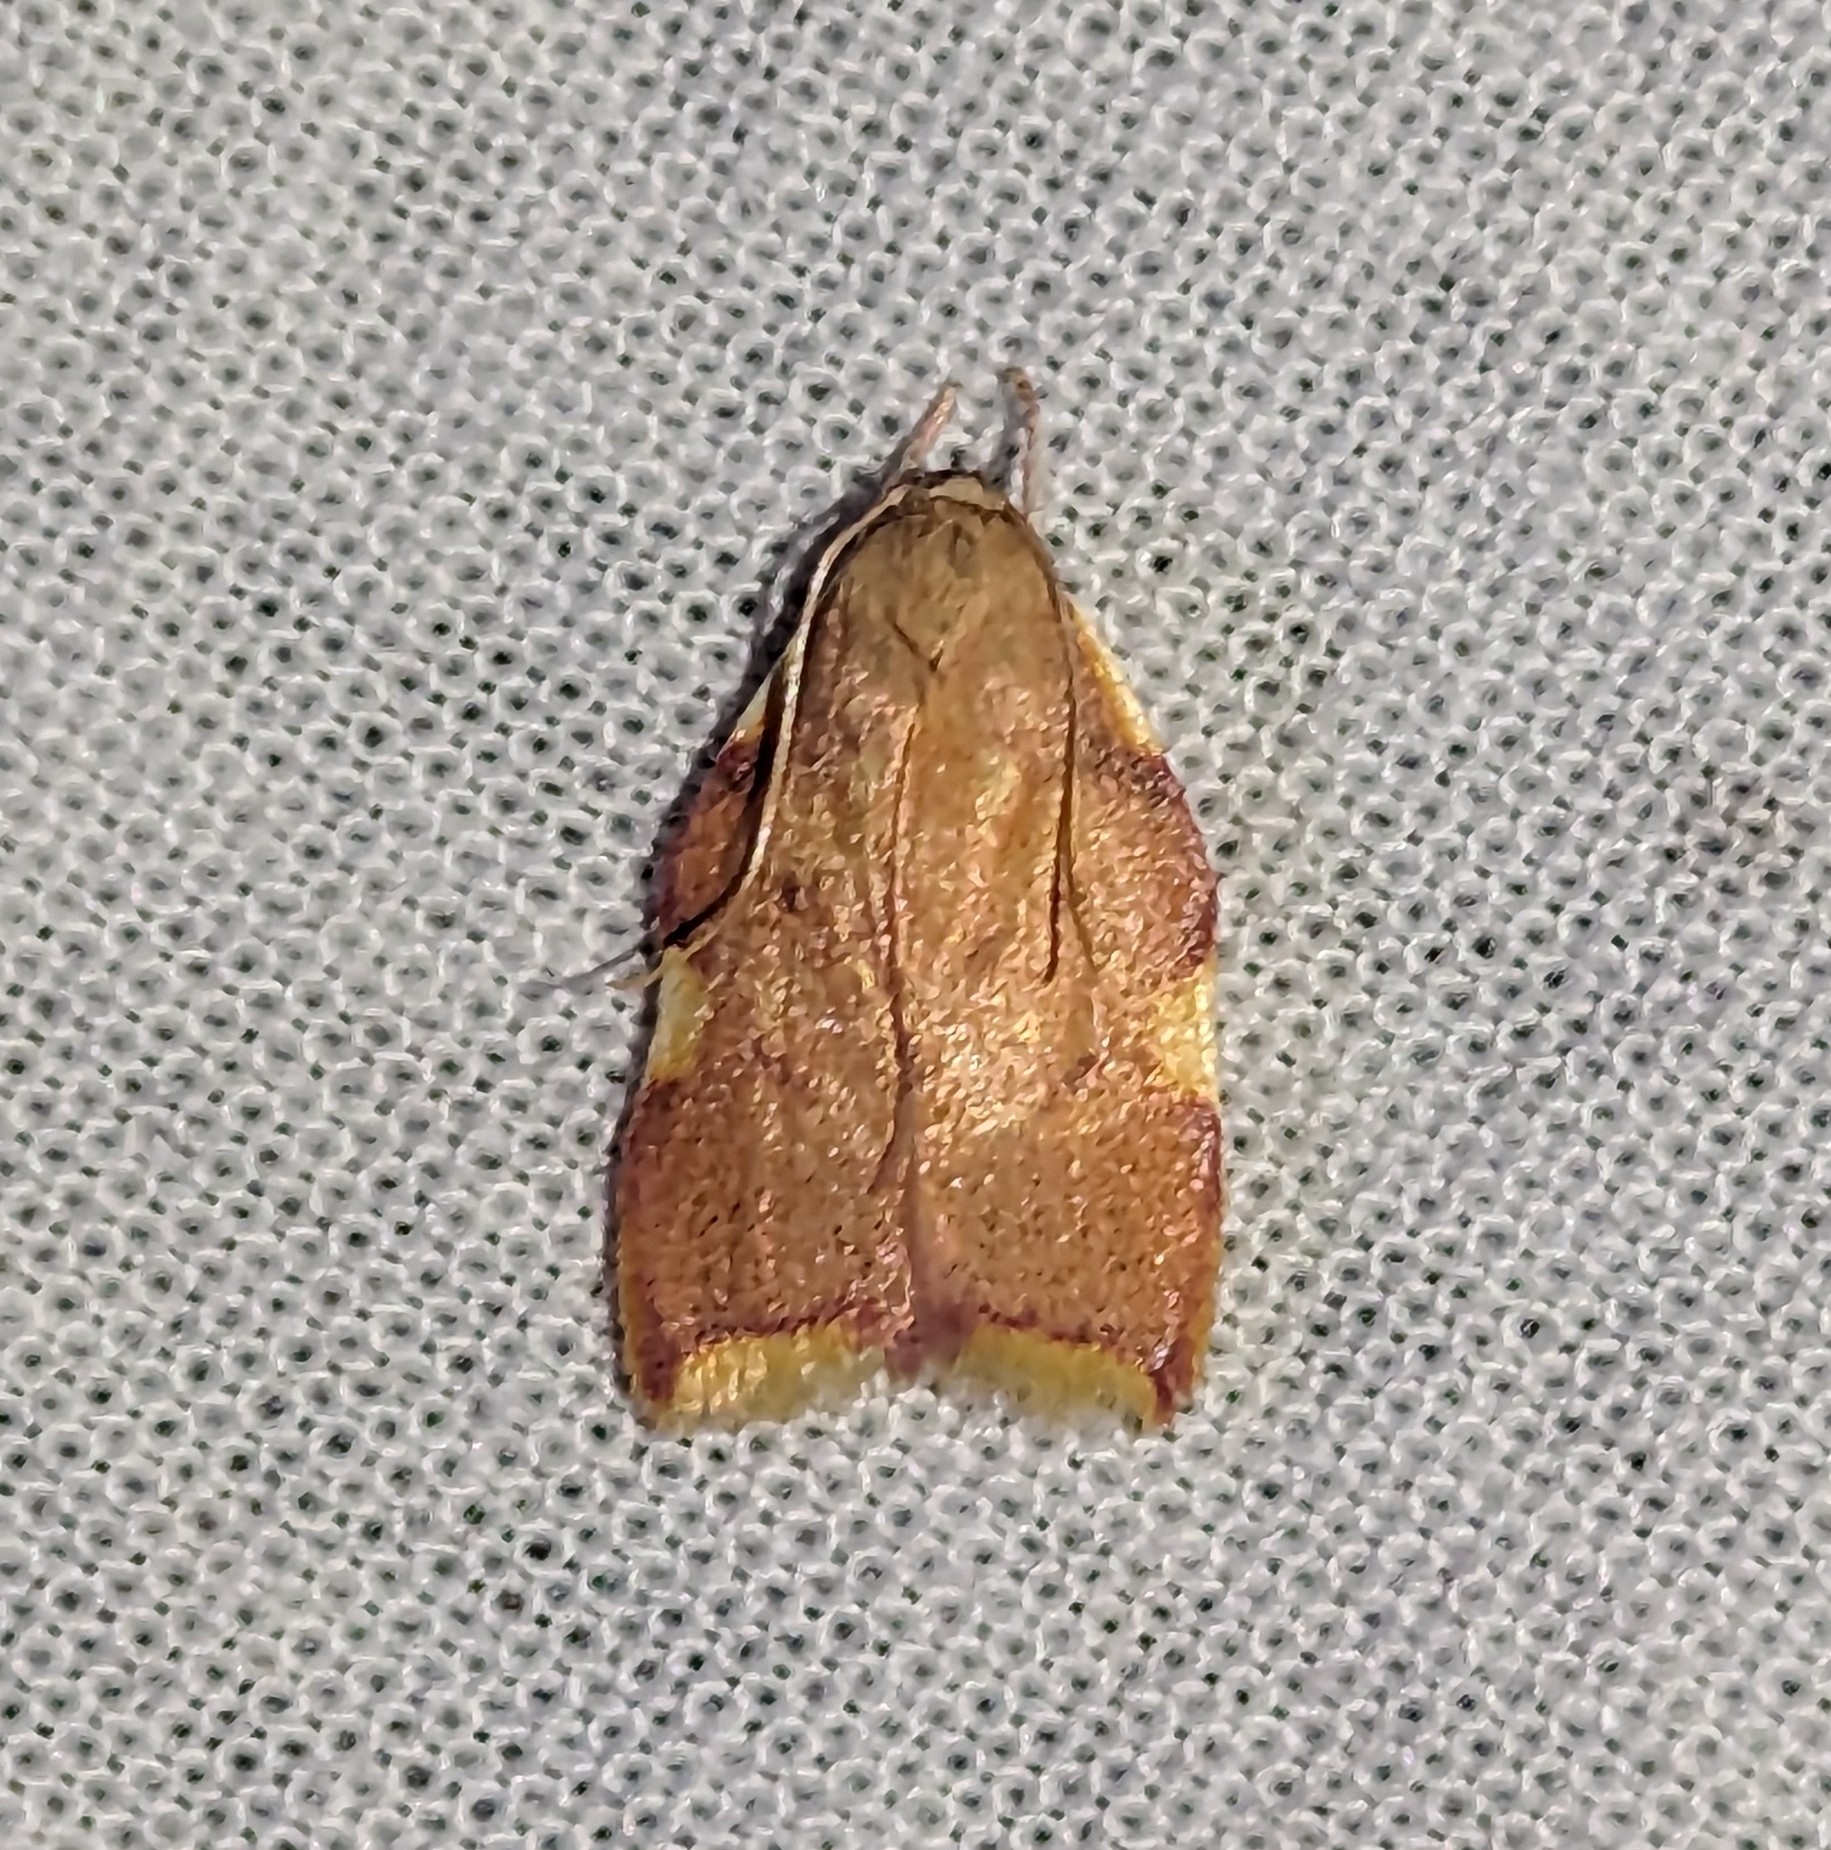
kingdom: Animalia
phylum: Arthropoda
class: Insecta
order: Lepidoptera
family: Peleopodidae
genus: Carcina
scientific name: Carcina quercana
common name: Moth
